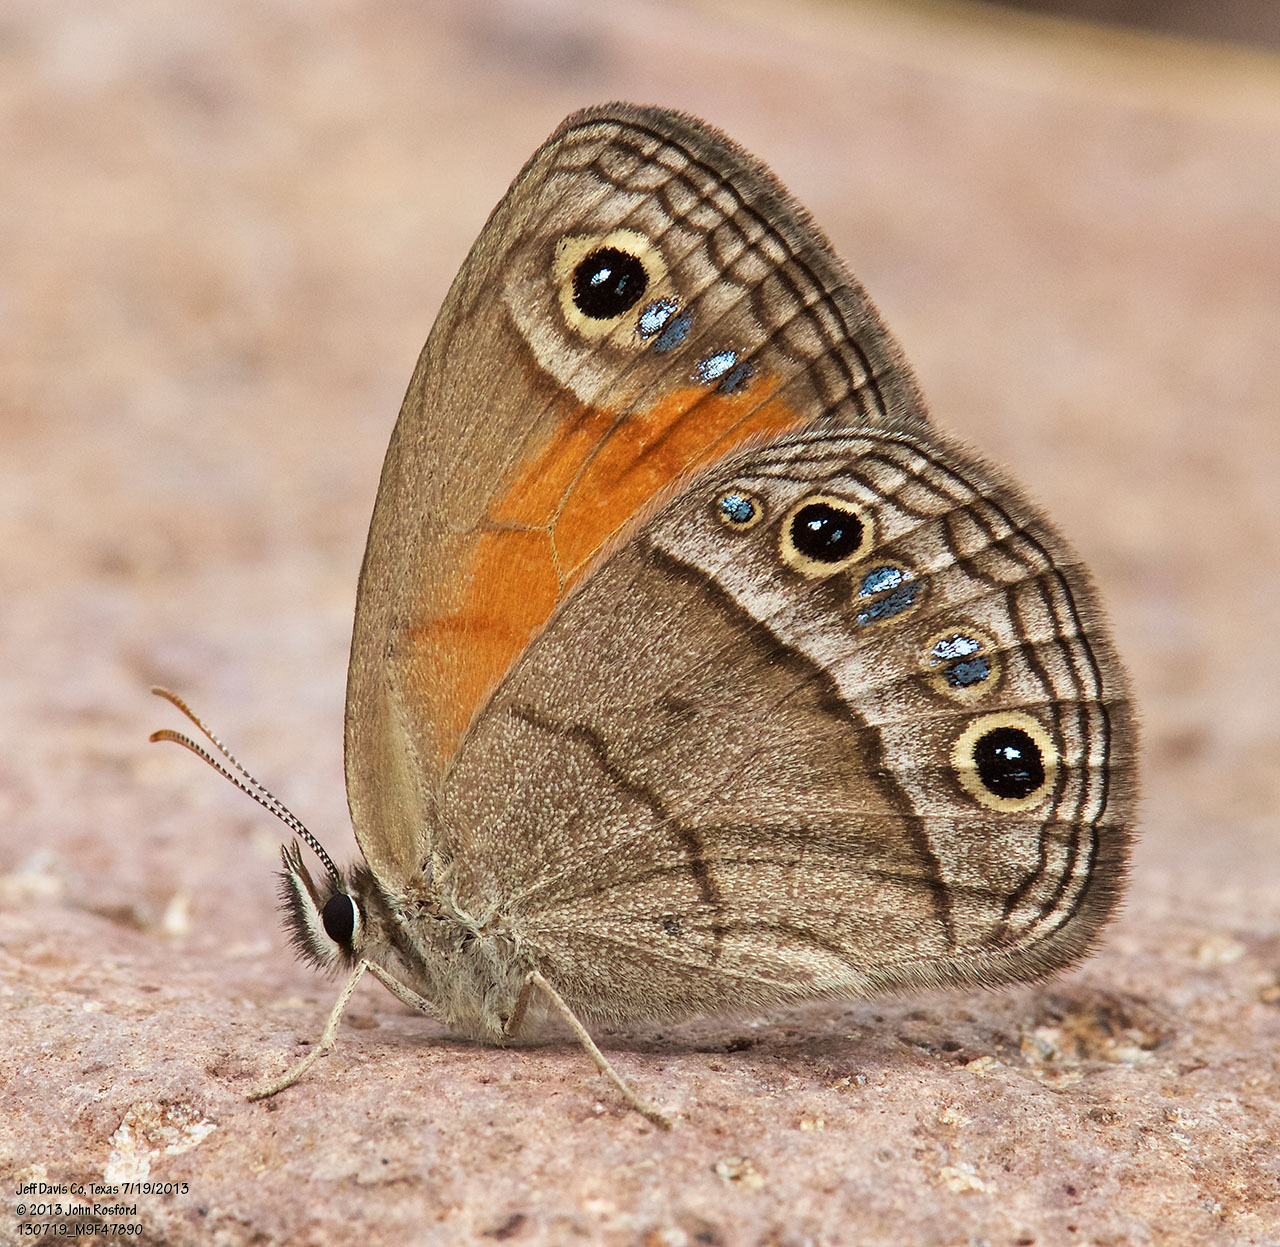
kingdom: Animalia
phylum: Arthropoda
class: Insecta
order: Lepidoptera
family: Nymphalidae
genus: Euptychia
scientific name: Euptychia Cissia rubricata
